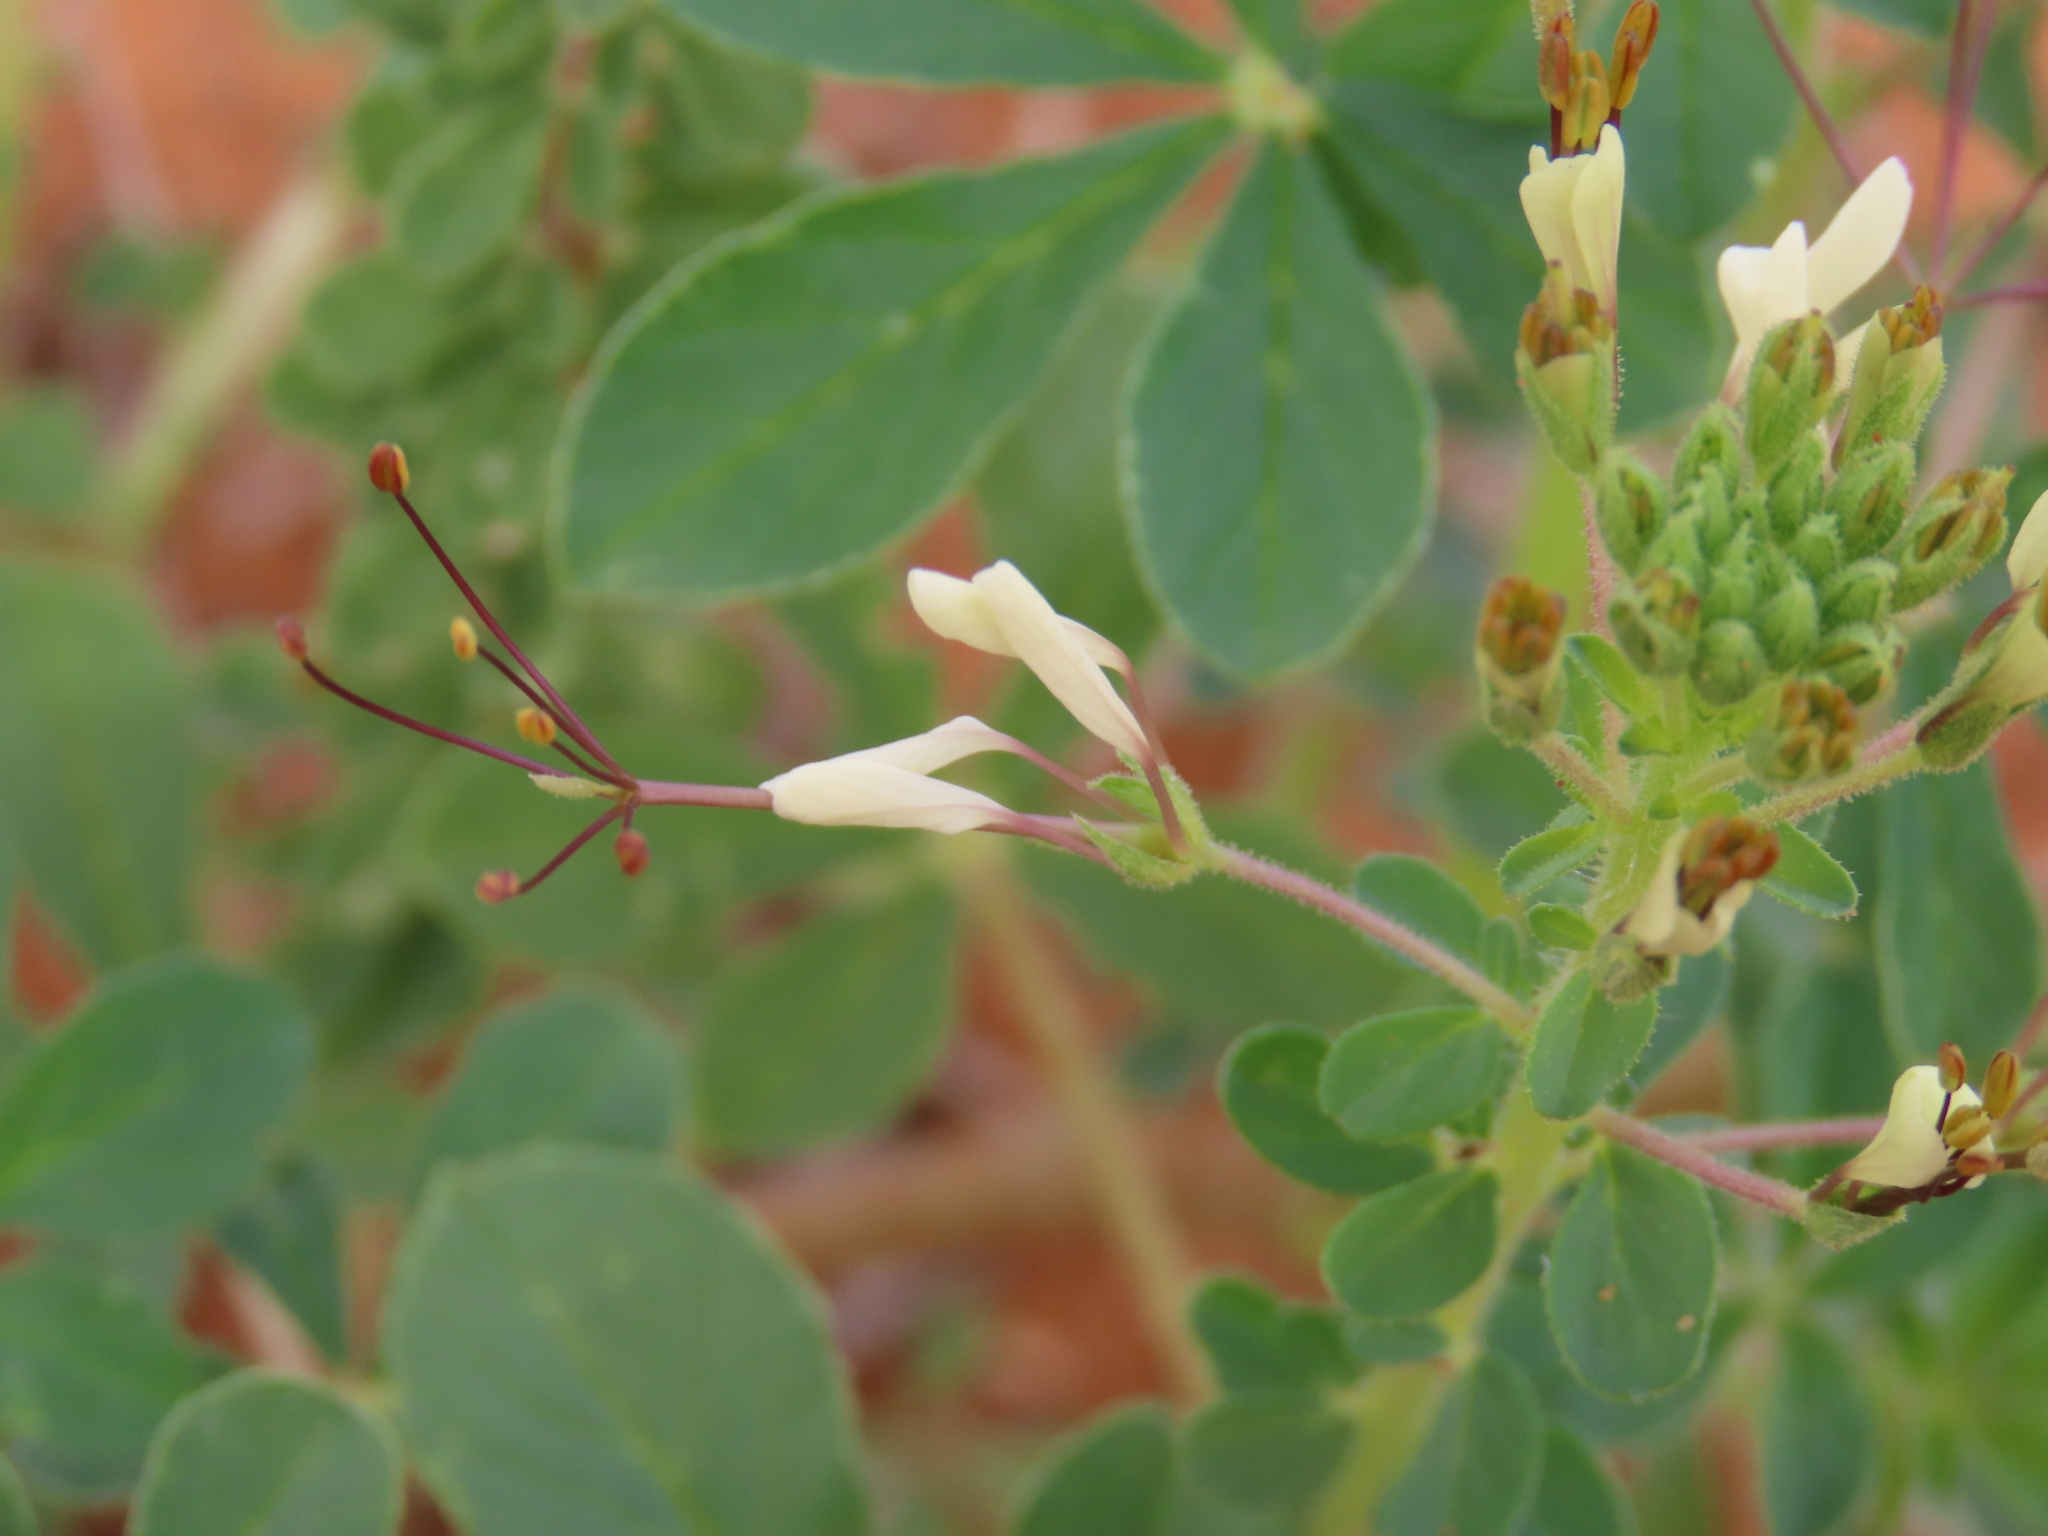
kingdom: Plantae
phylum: Tracheophyta
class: Magnoliopsida
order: Brassicales
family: Cleomaceae
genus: Gynandropsis
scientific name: Gynandropsis gynandra
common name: Spiderwisp
